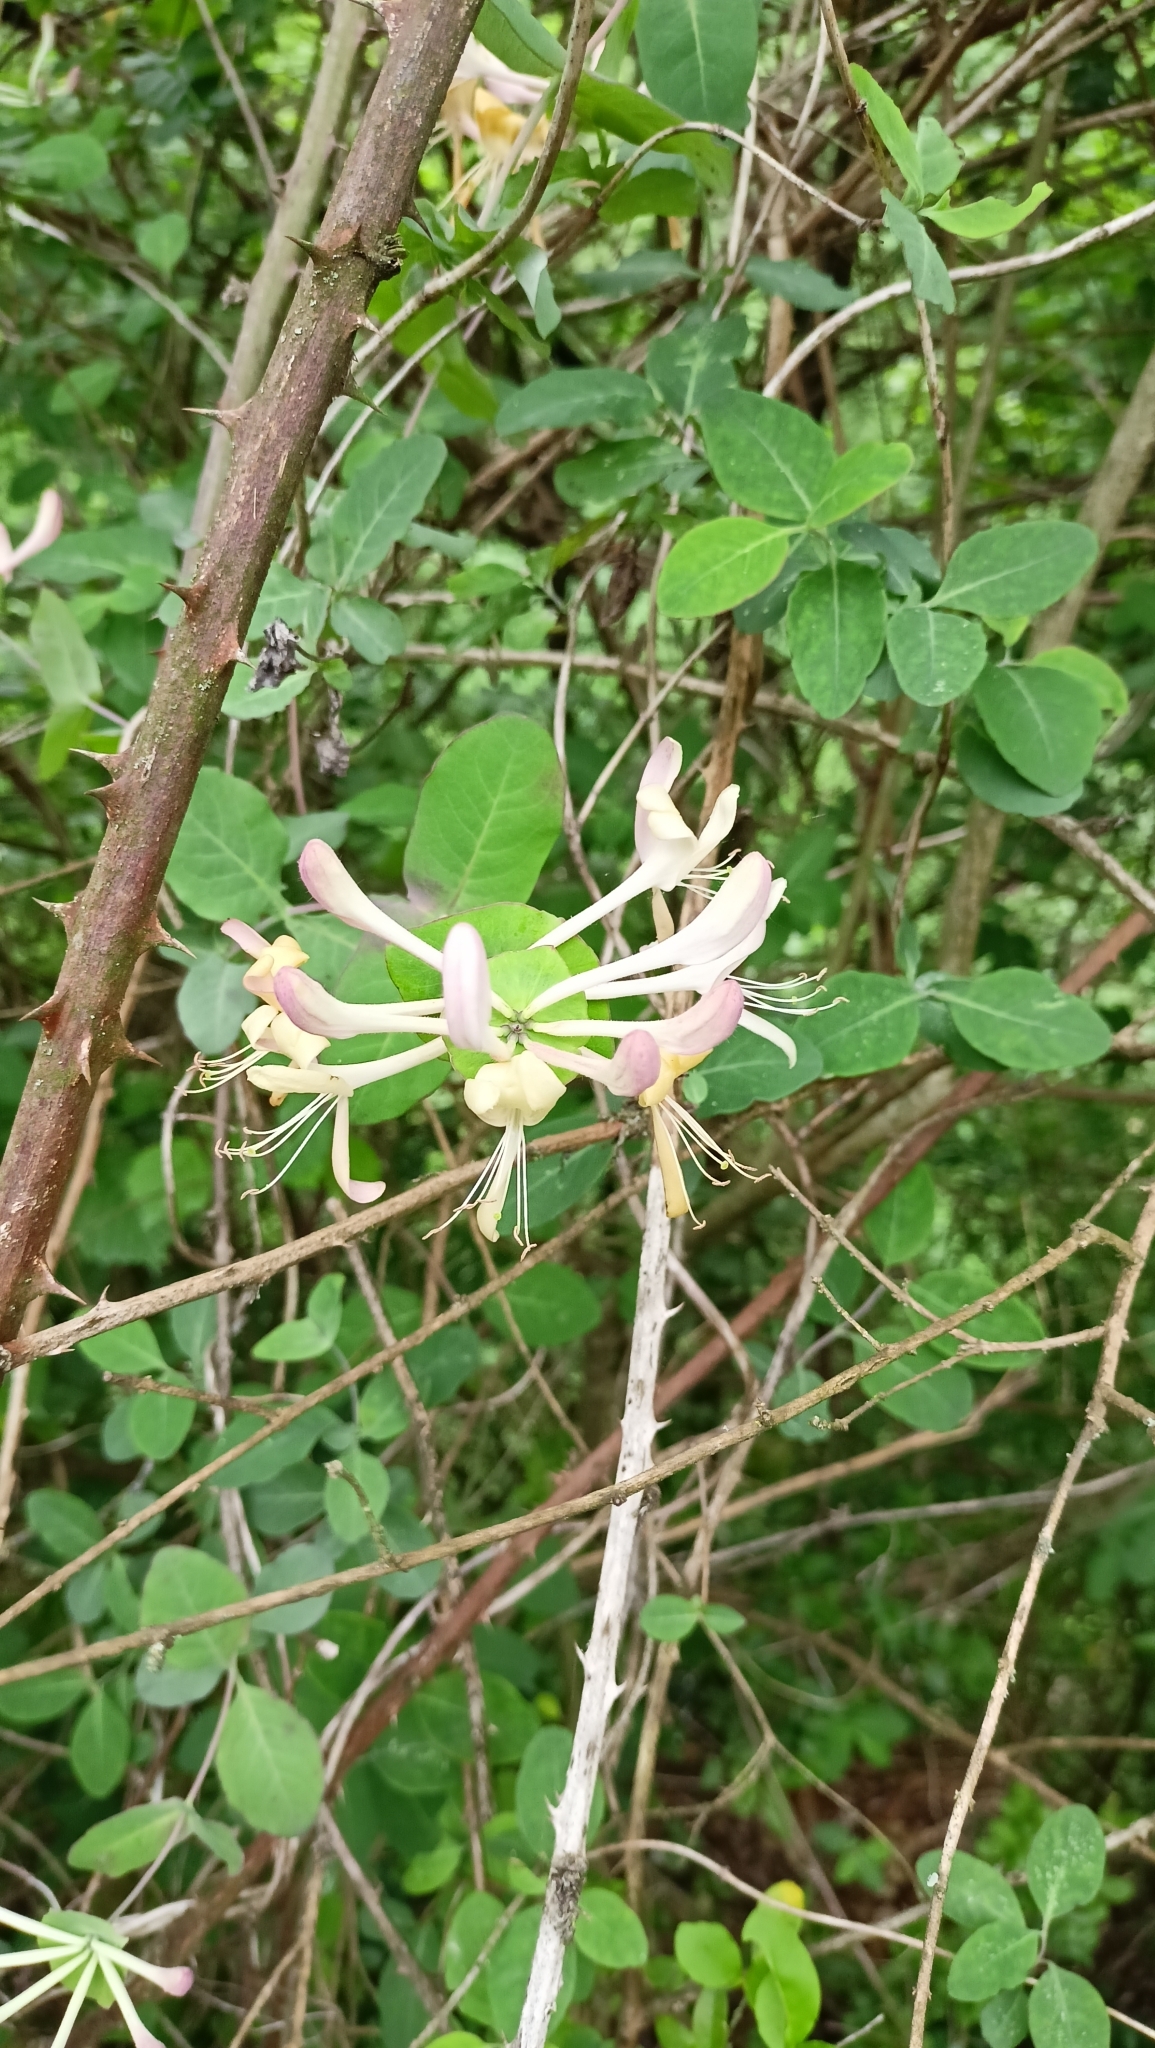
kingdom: Plantae
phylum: Tracheophyta
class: Magnoliopsida
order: Dipsacales
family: Caprifoliaceae
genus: Lonicera
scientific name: Lonicera caprifolium
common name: Perfoliate honeysuckle
